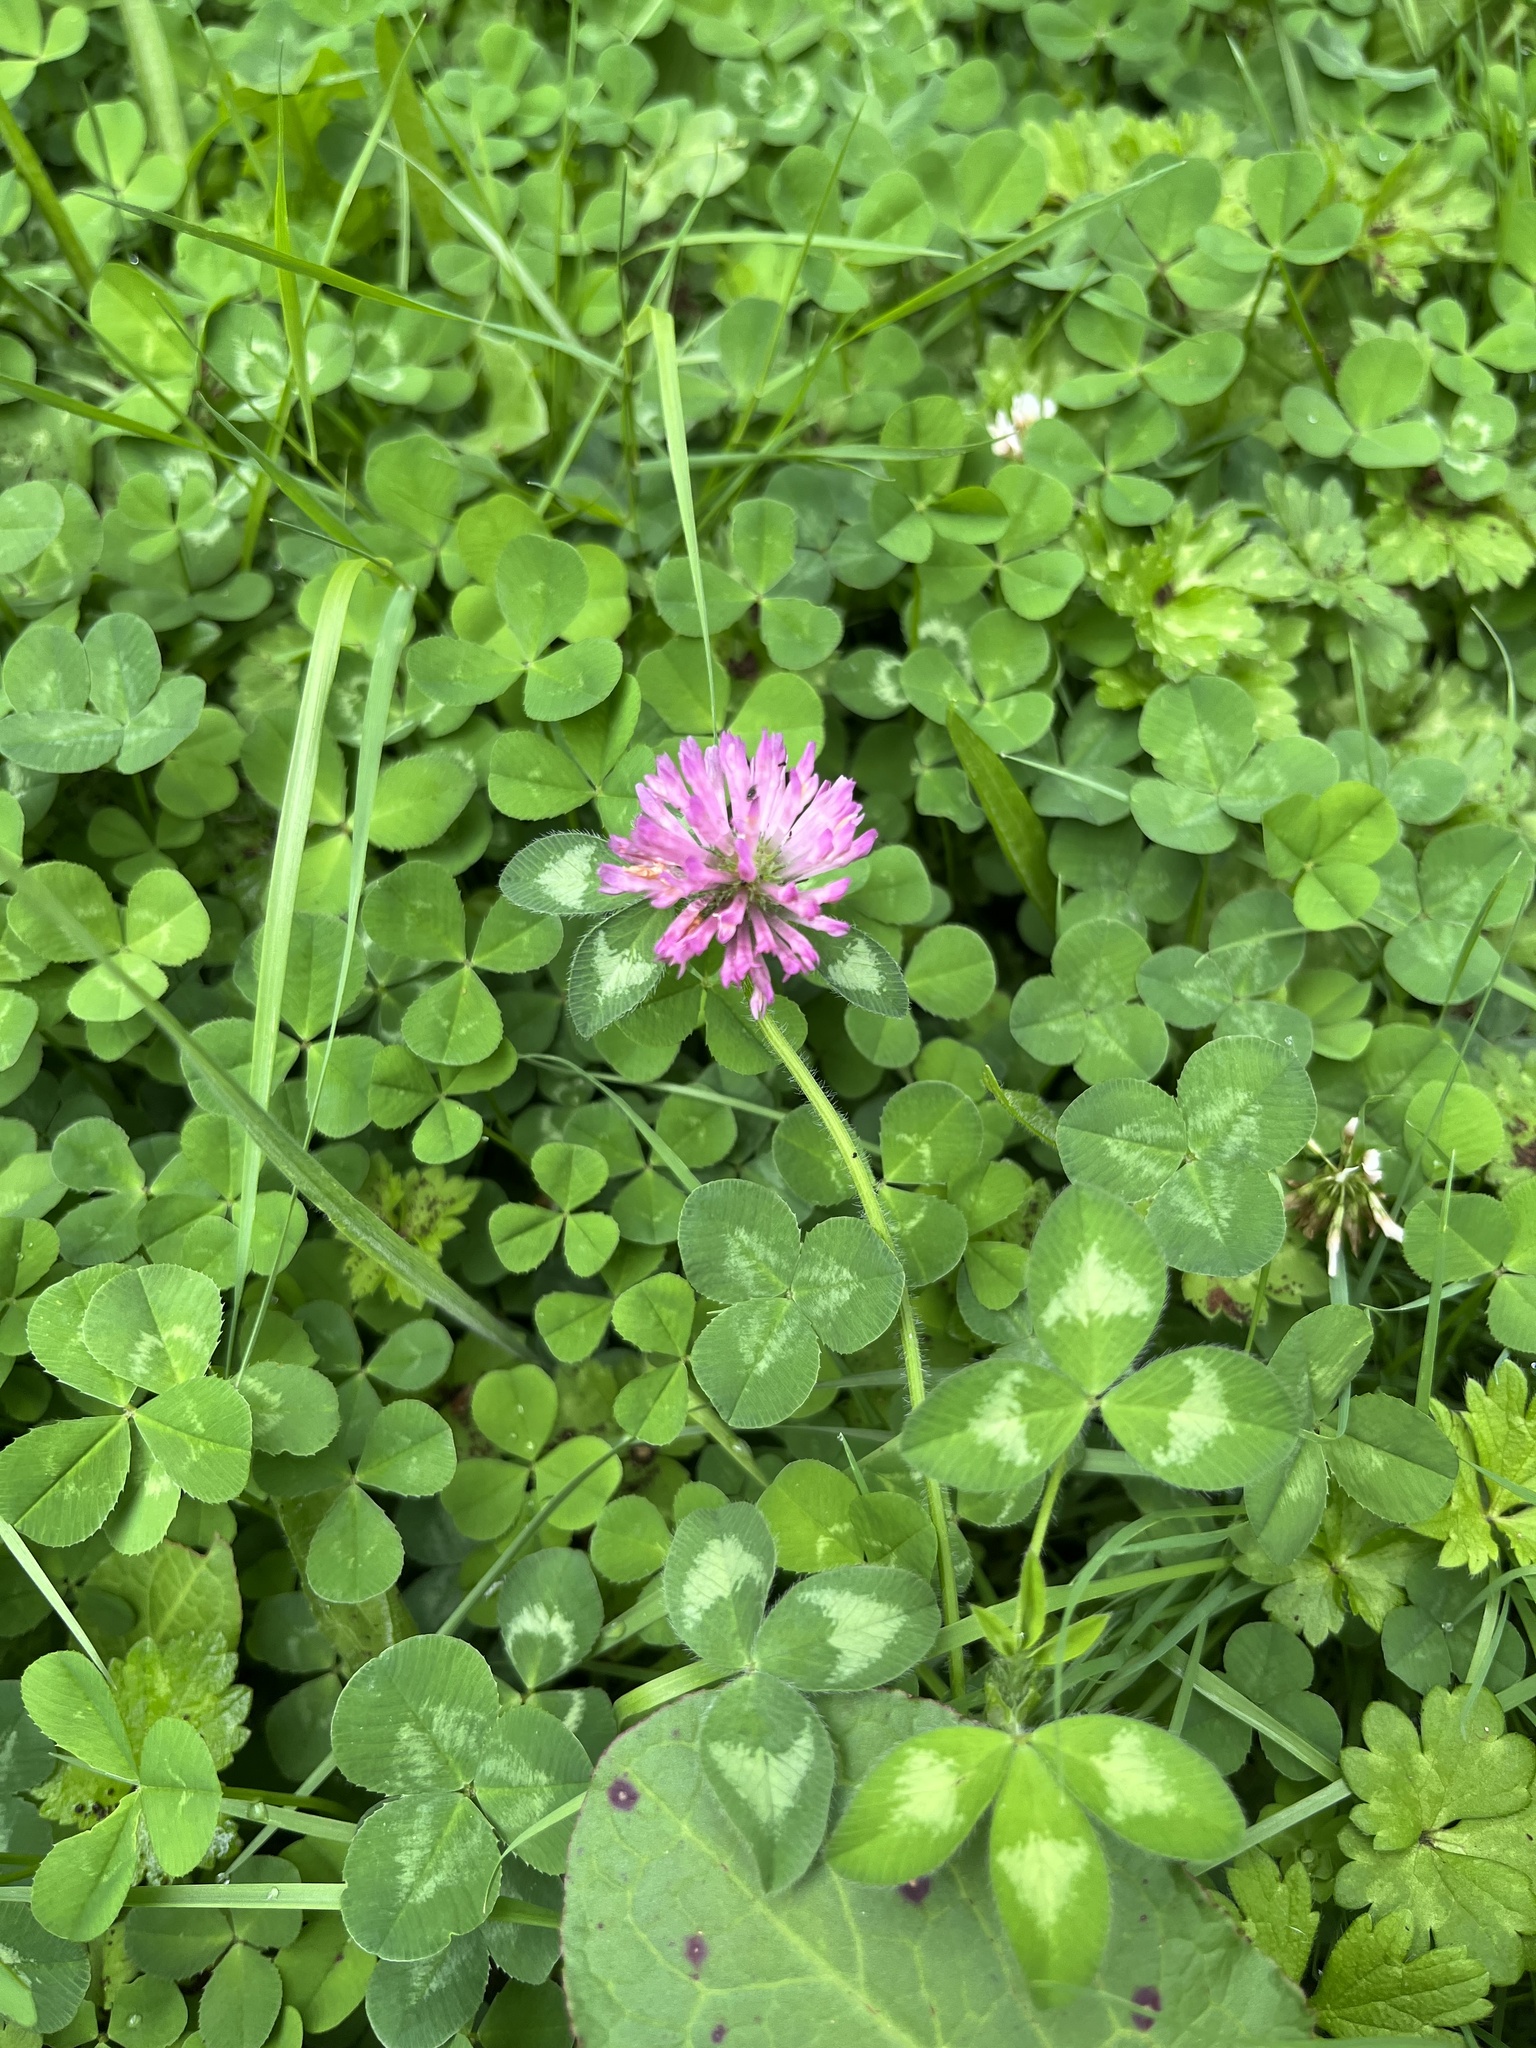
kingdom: Plantae
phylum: Tracheophyta
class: Magnoliopsida
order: Fabales
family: Fabaceae
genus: Trifolium
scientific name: Trifolium pratense
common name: Red clover
